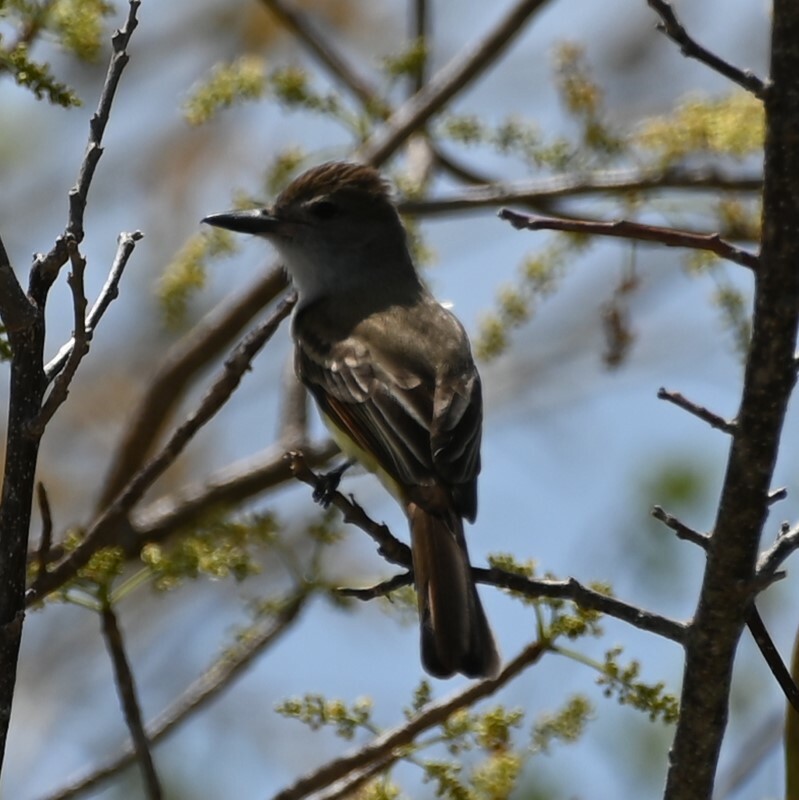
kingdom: Animalia
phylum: Chordata
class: Aves
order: Passeriformes
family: Tyrannidae
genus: Myiarchus
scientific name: Myiarchus tyrannulus
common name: Brown-crested flycatcher
